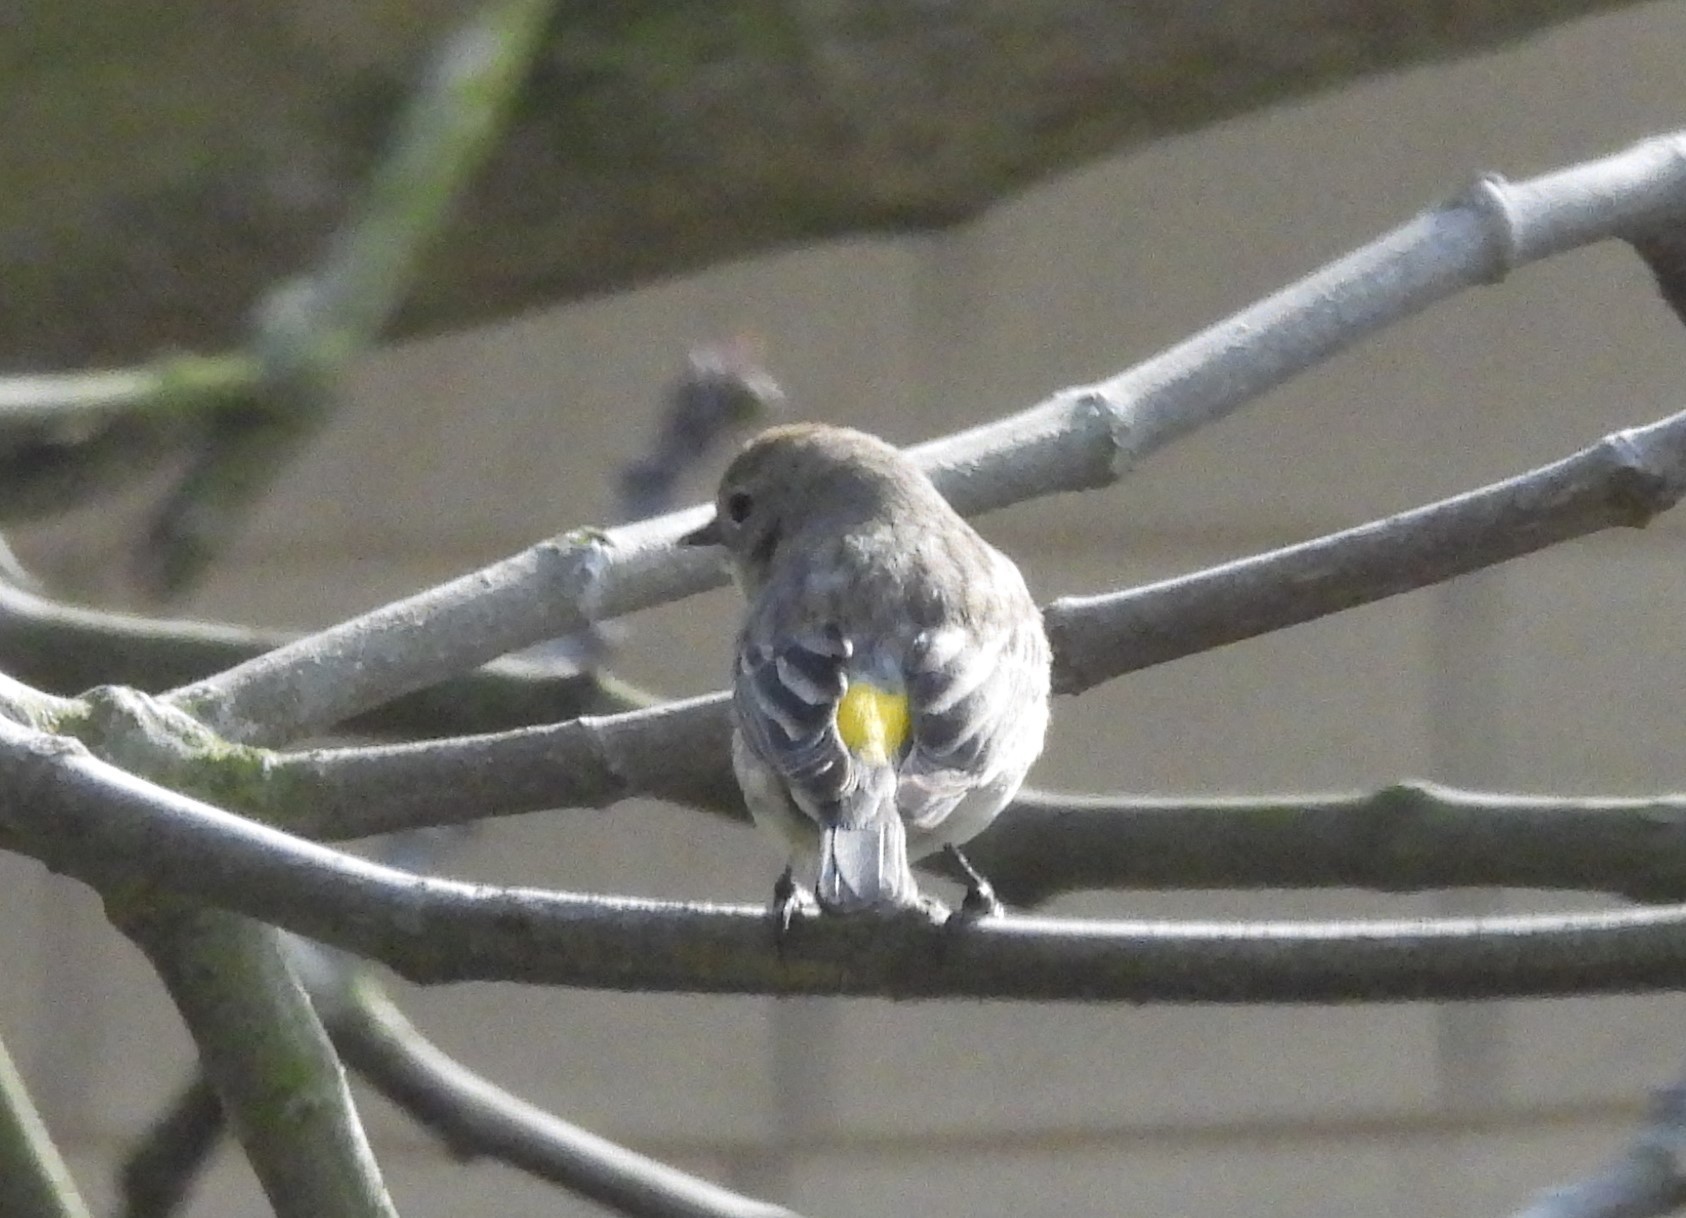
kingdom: Animalia
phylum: Chordata
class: Aves
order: Passeriformes
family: Parulidae
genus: Setophaga
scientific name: Setophaga coronata
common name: Myrtle warbler
